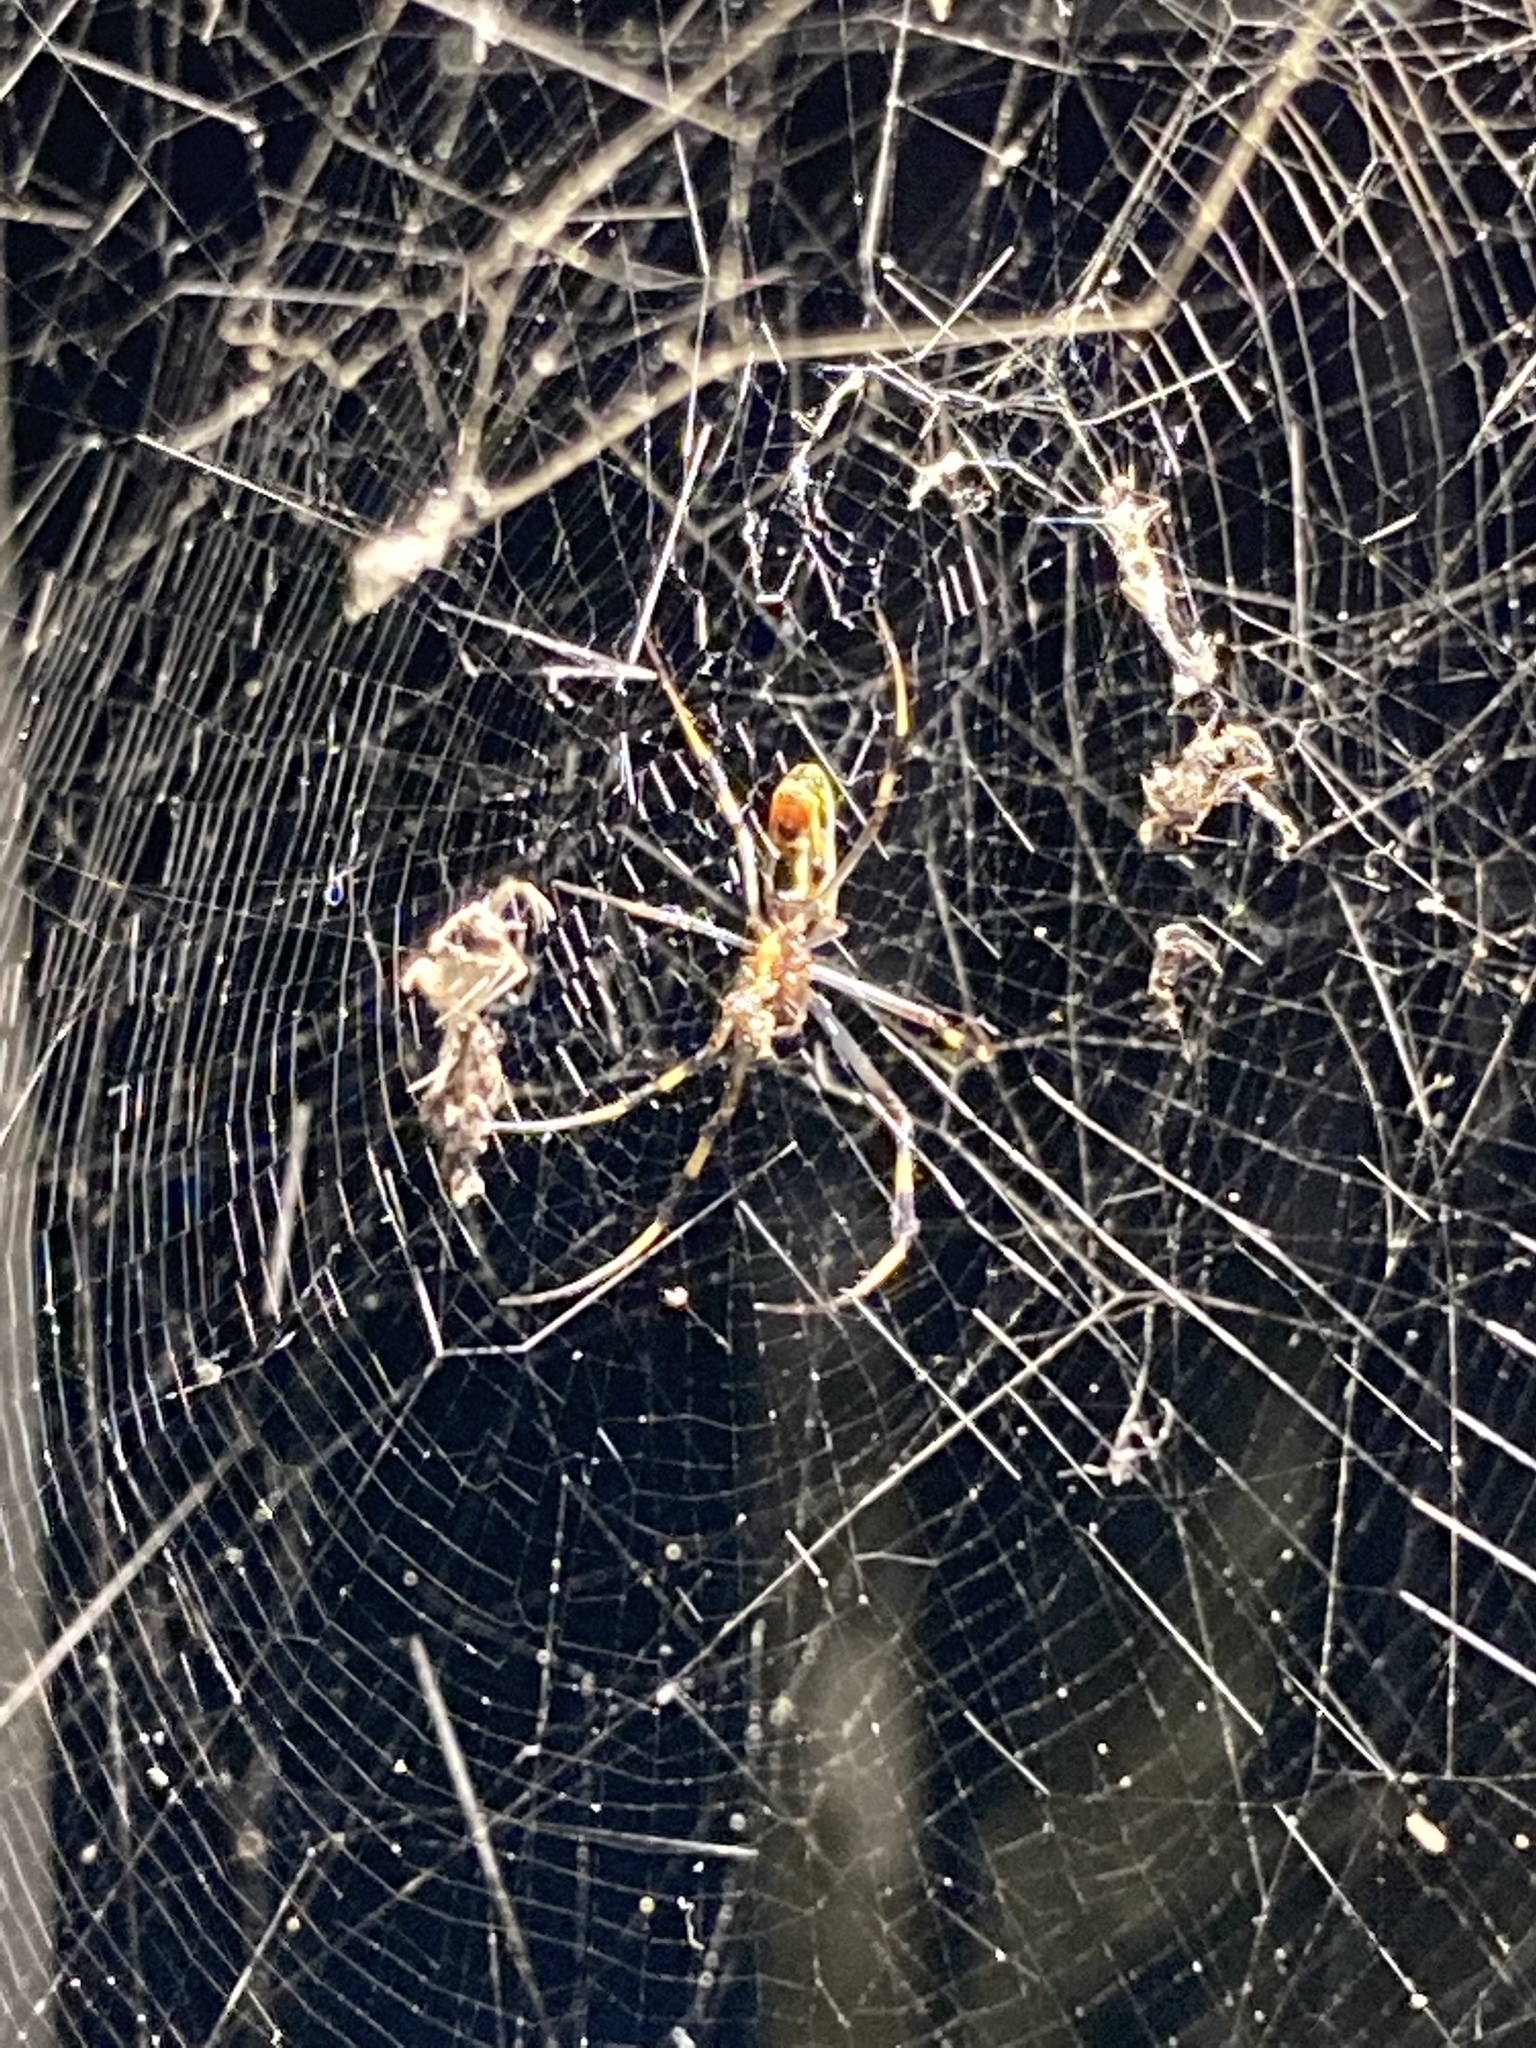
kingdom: Animalia
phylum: Arthropoda
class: Arachnida
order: Araneae
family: Araneidae
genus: Trichonephila
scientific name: Trichonephila clavipes
